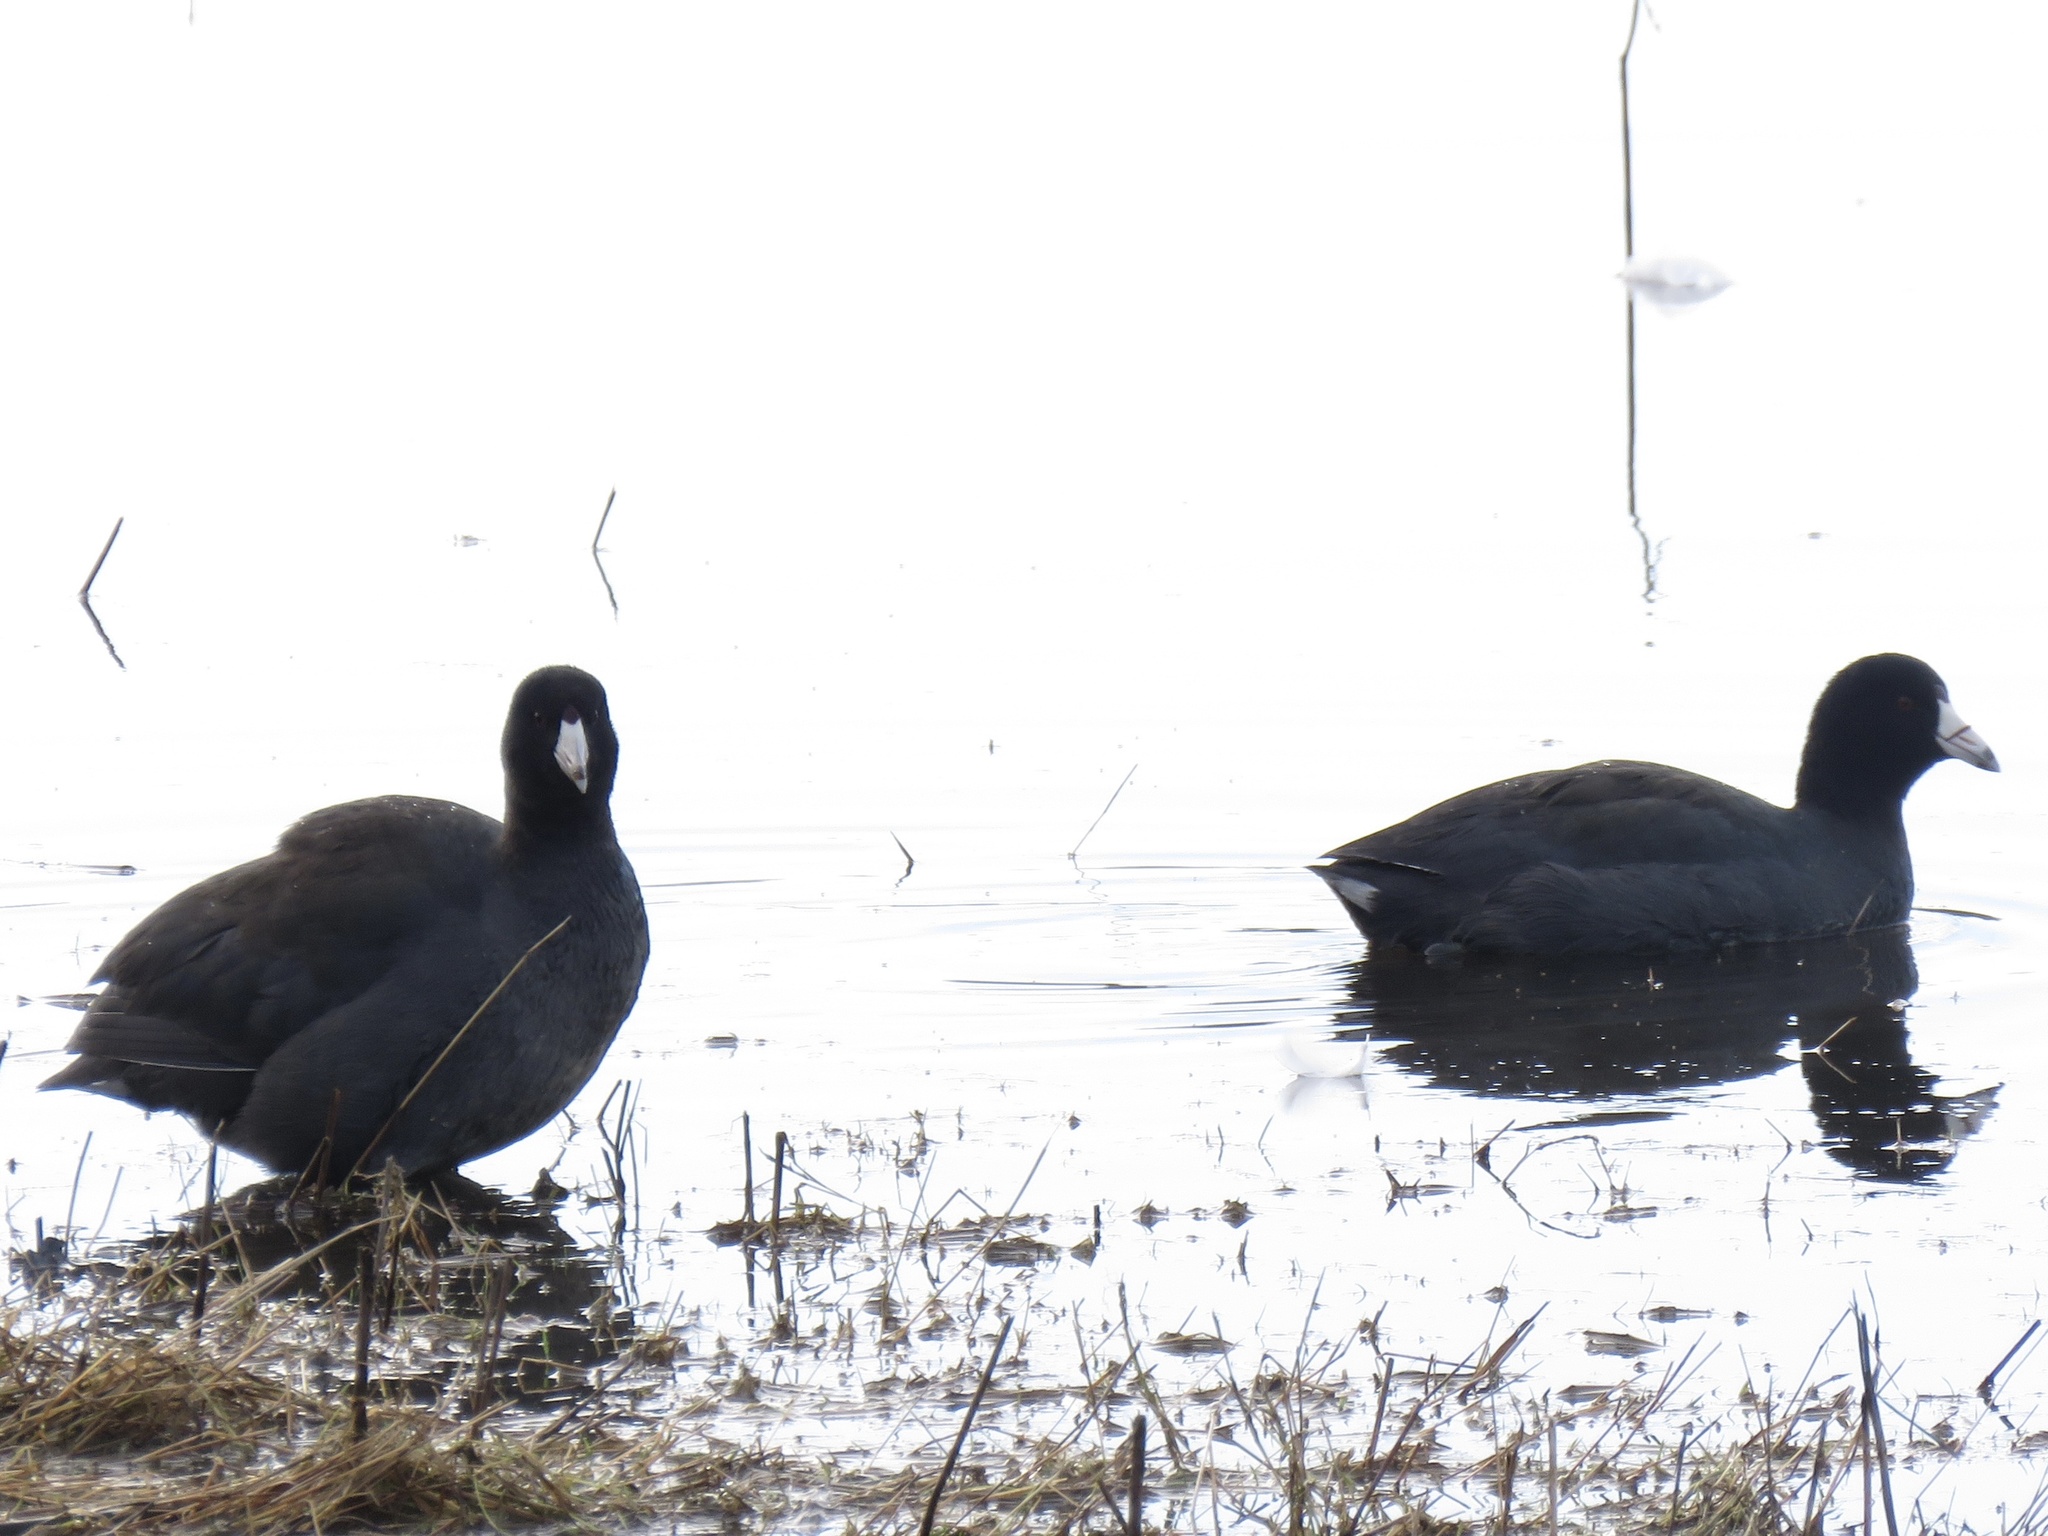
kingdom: Animalia
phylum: Chordata
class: Aves
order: Gruiformes
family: Rallidae
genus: Fulica
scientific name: Fulica americana
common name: American coot
